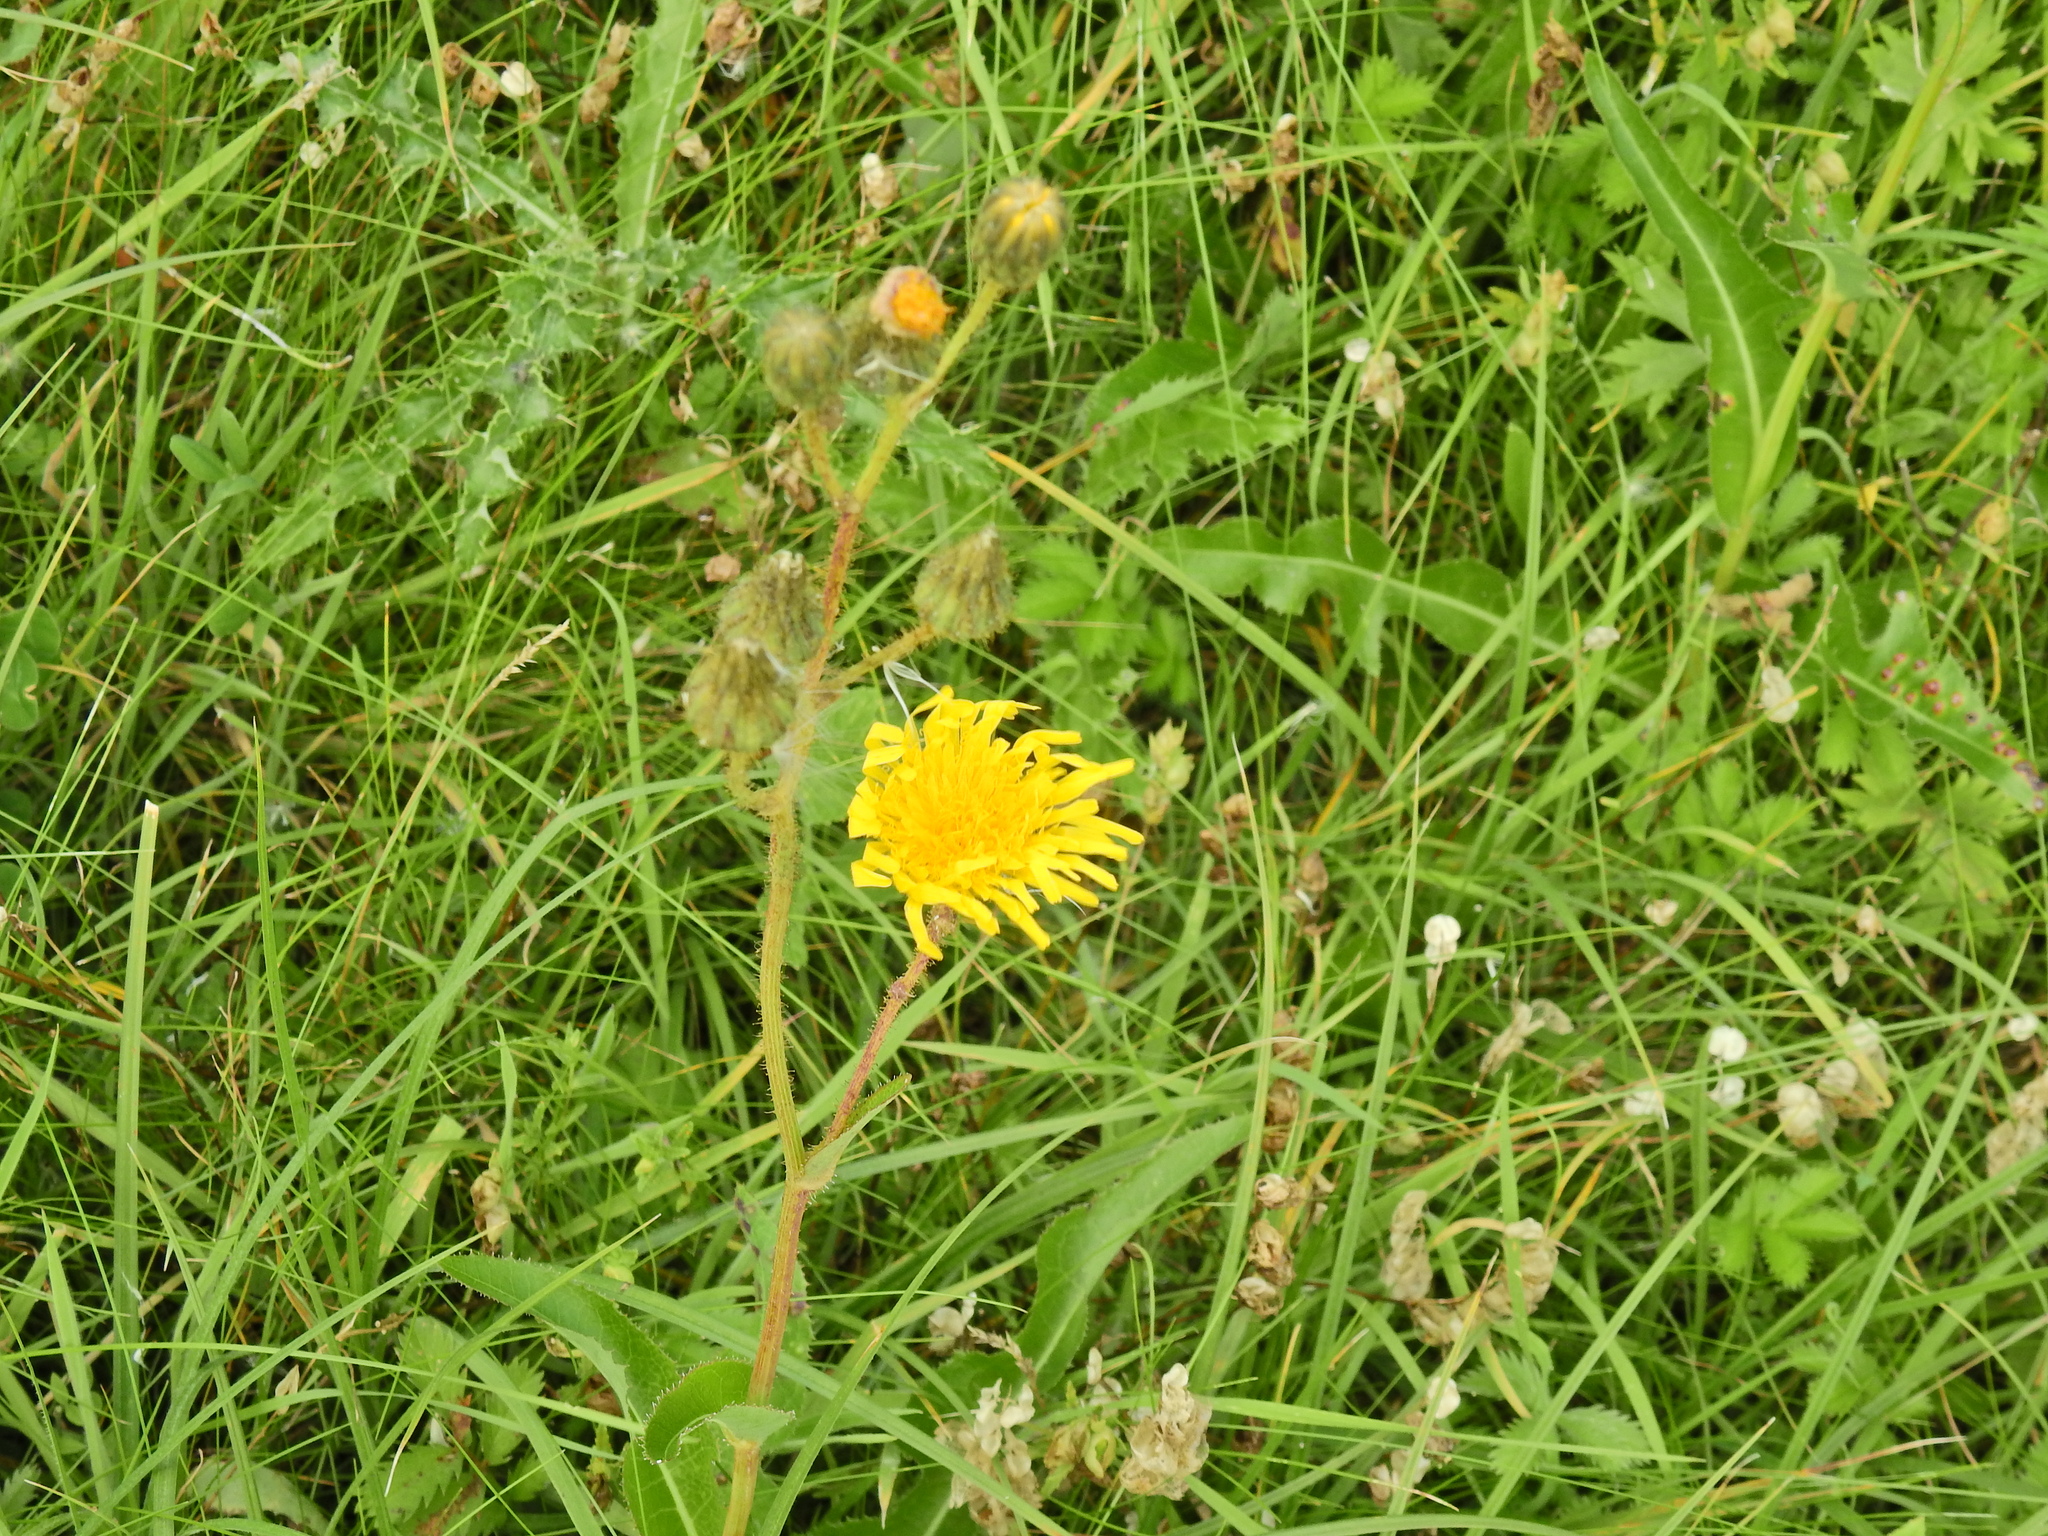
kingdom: Plantae
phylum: Tracheophyta
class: Magnoliopsida
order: Asterales
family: Asteraceae
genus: Sonchus
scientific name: Sonchus arvensis
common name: Perennial sow-thistle
